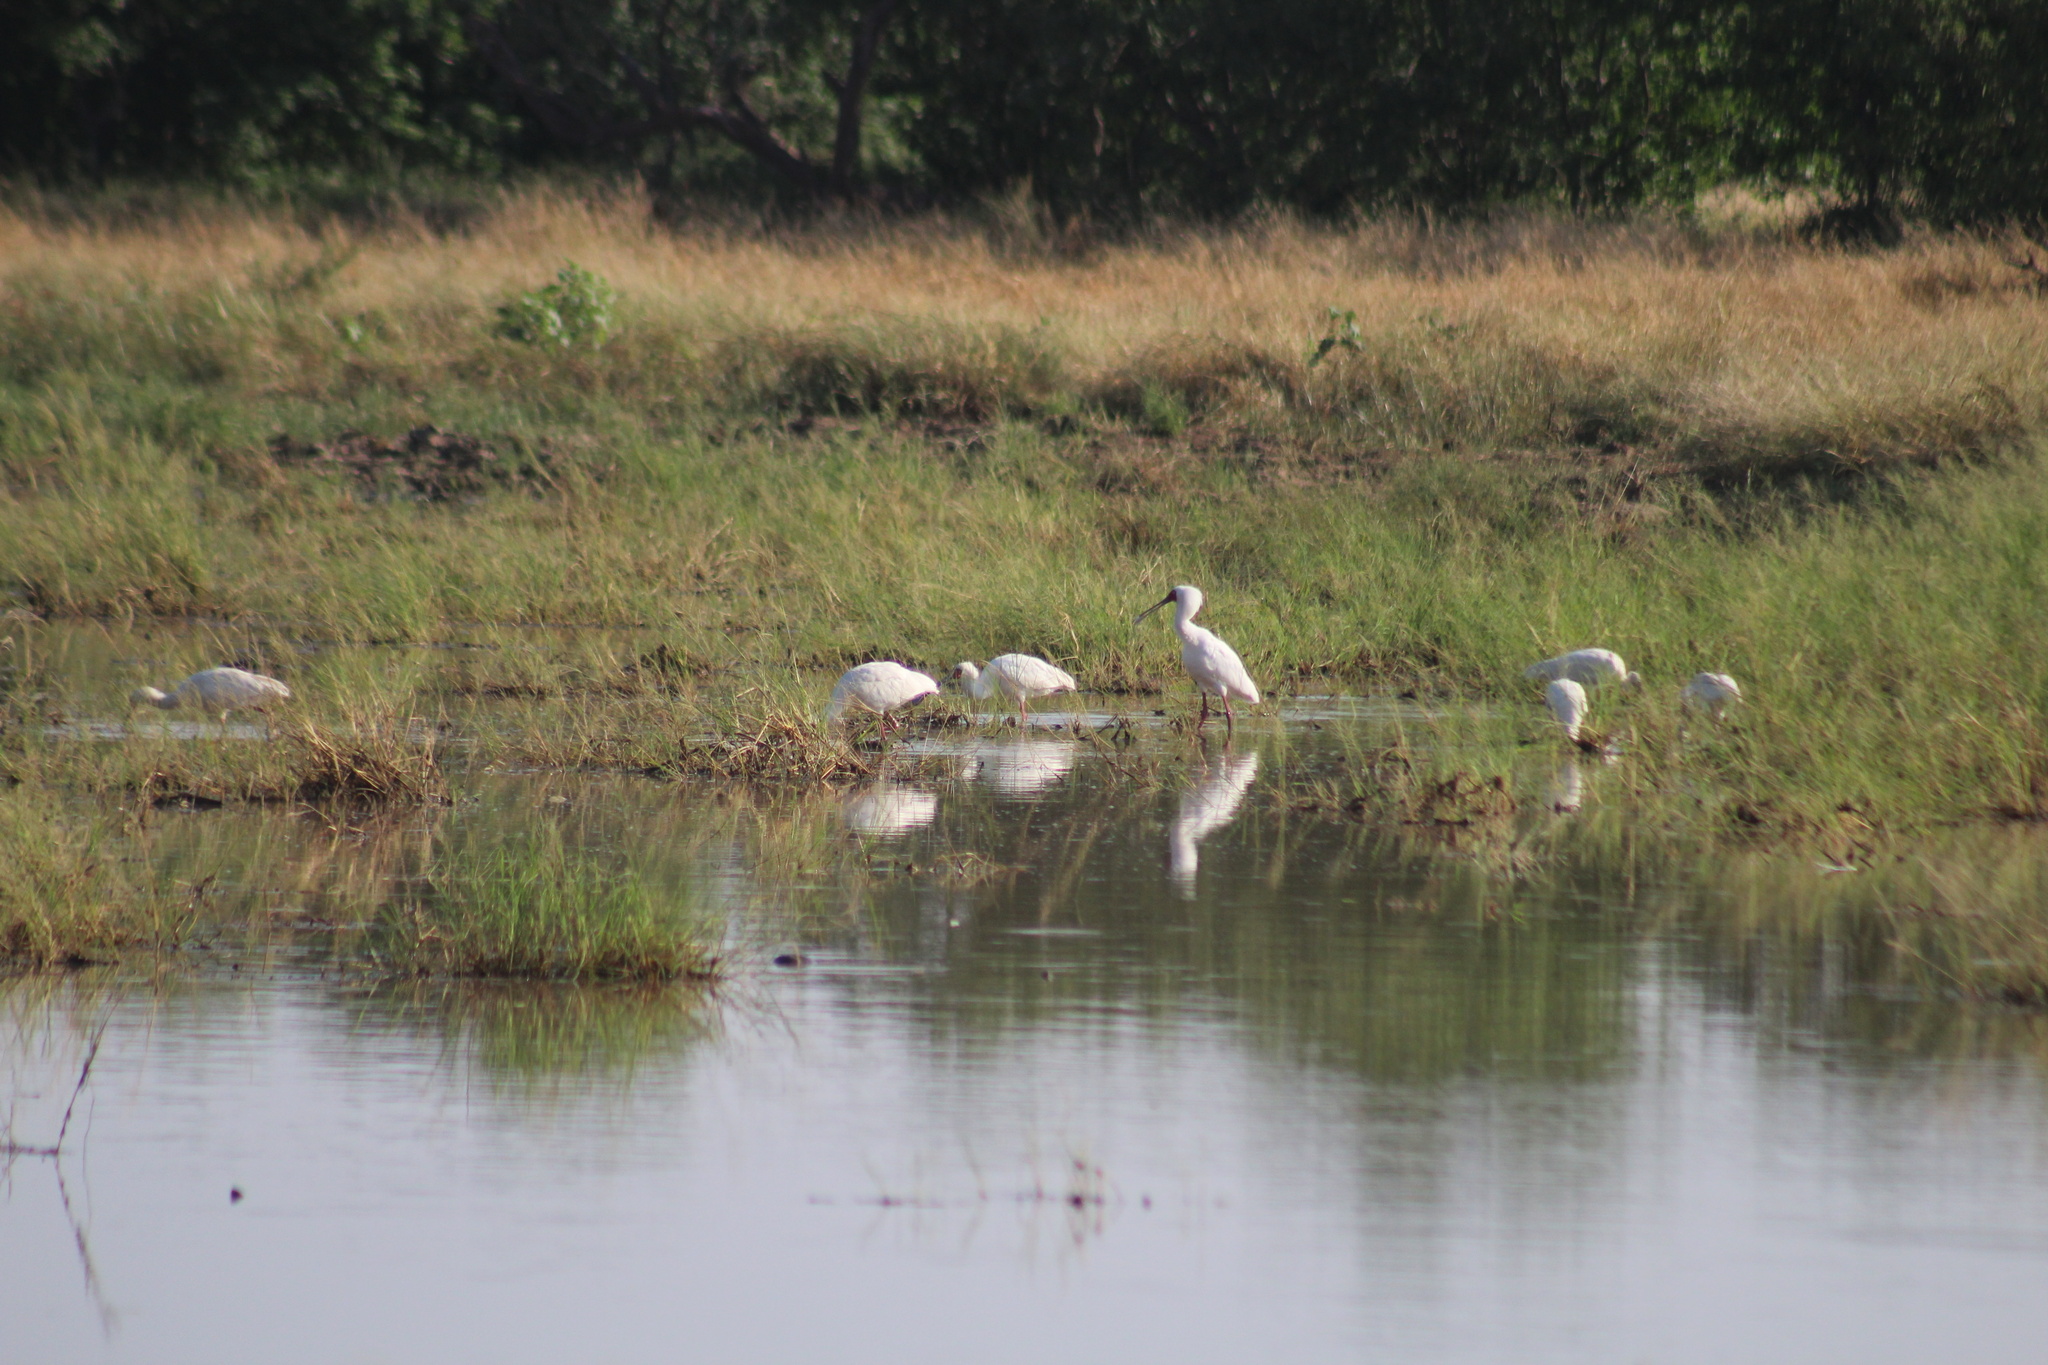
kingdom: Animalia
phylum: Chordata
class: Aves
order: Pelecaniformes
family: Threskiornithidae
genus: Platalea
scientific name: Platalea alba
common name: African spoonbill
